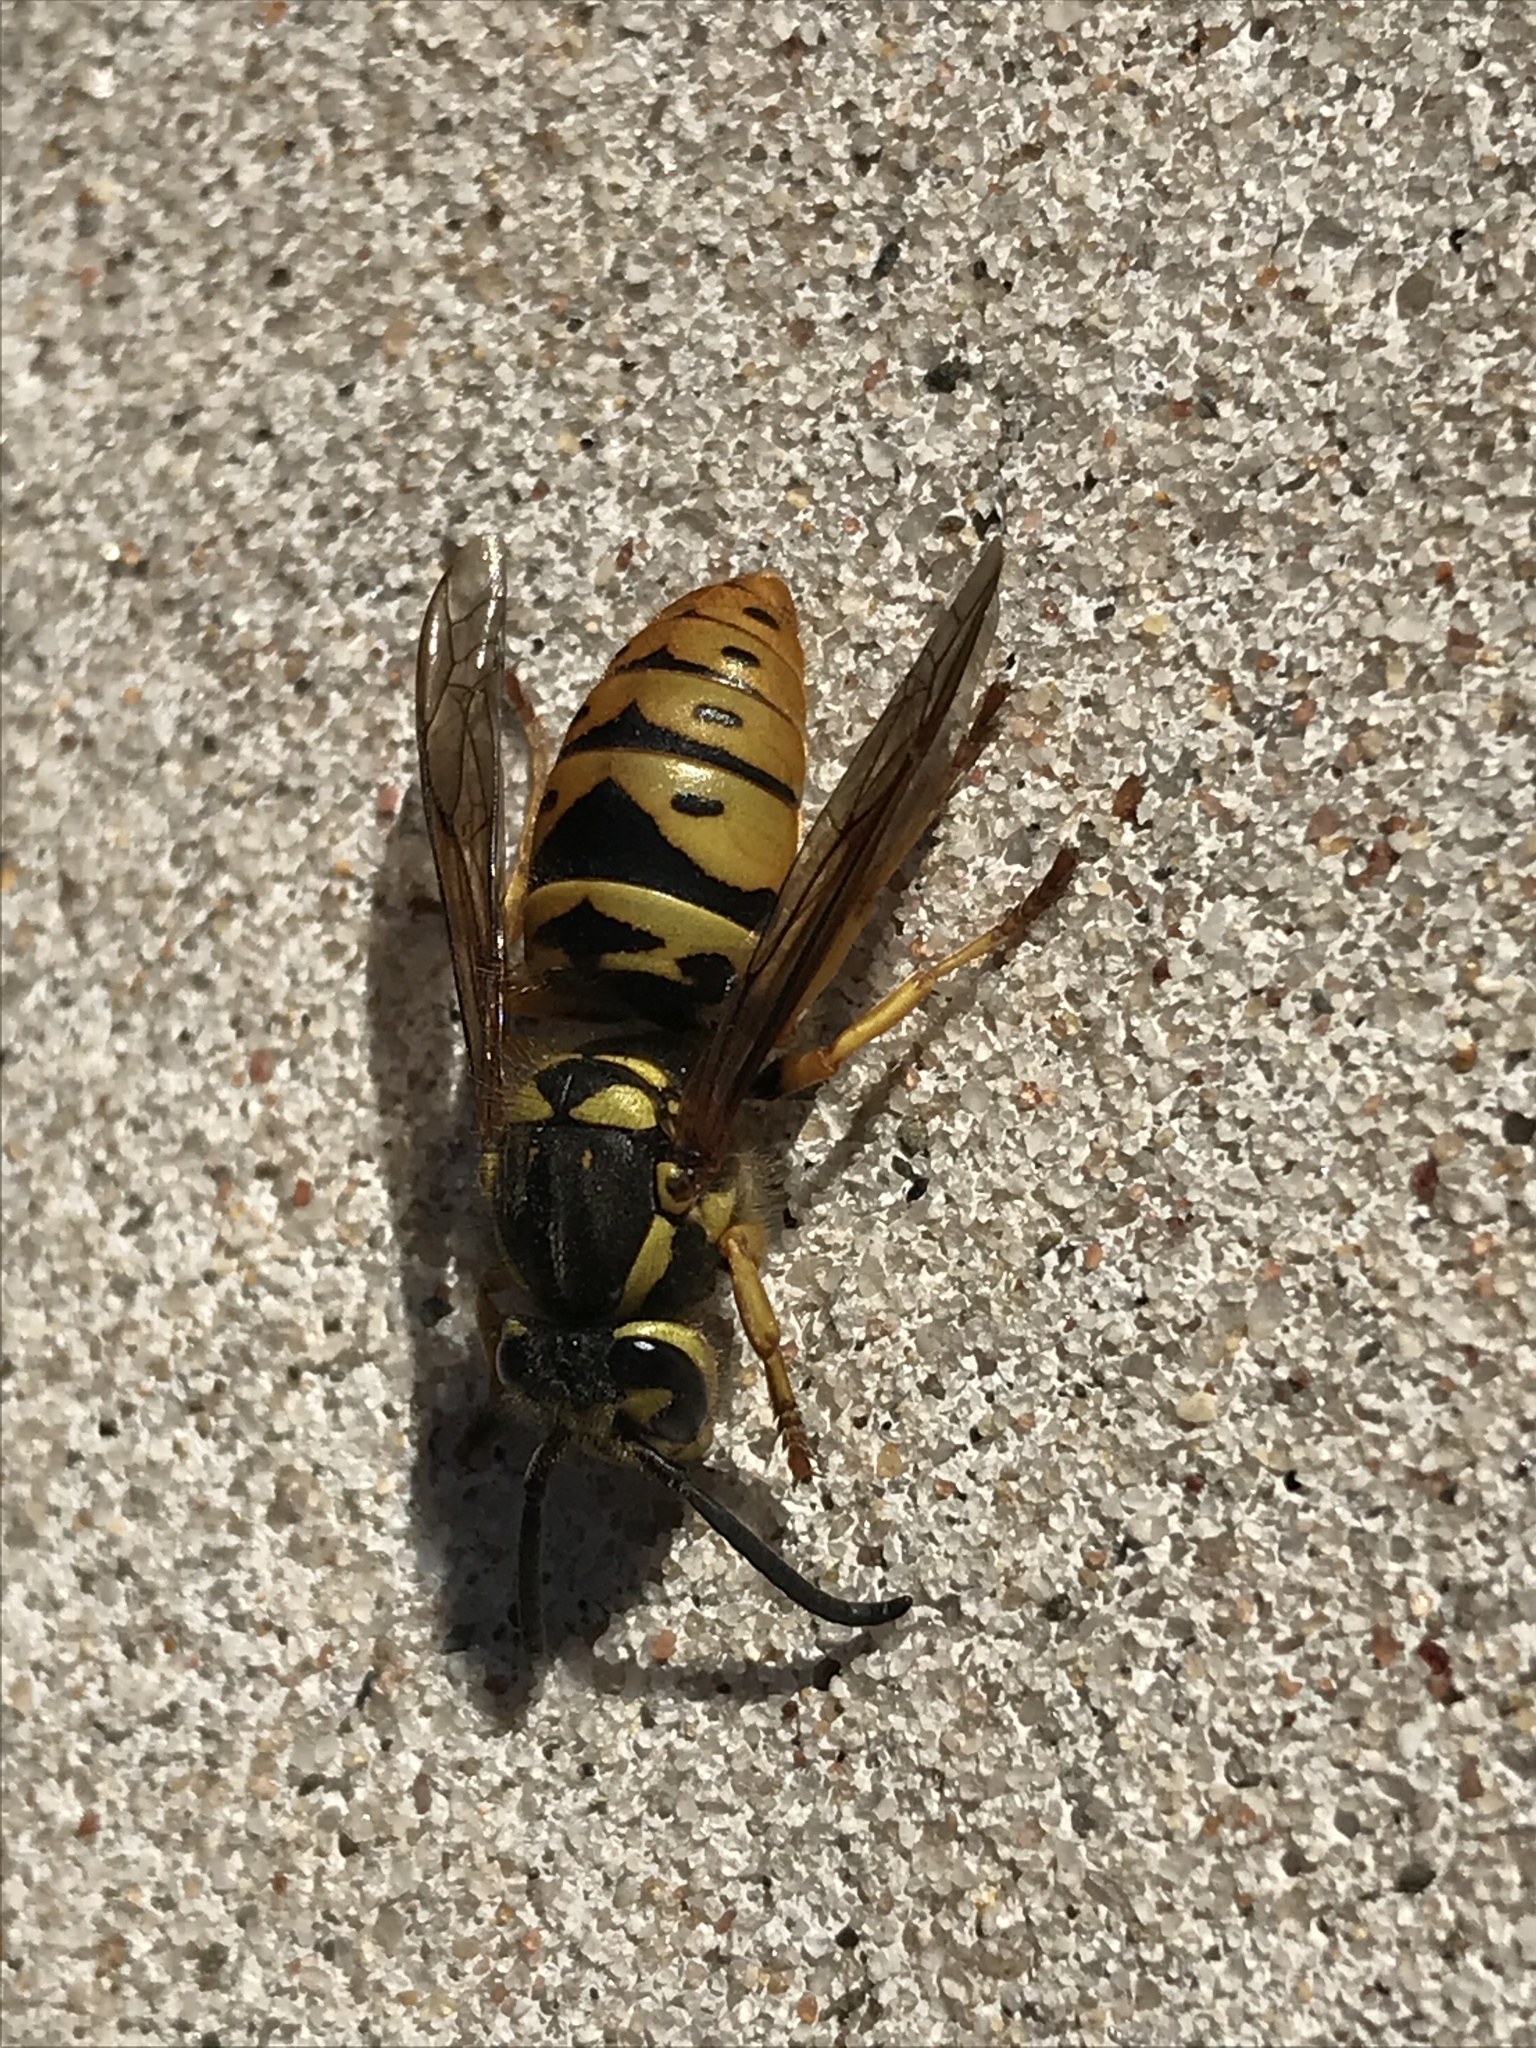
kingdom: Animalia
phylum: Arthropoda
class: Insecta
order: Hymenoptera
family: Vespidae
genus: Vespula
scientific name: Vespula maculifrons
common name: Eastern yellowjacket
